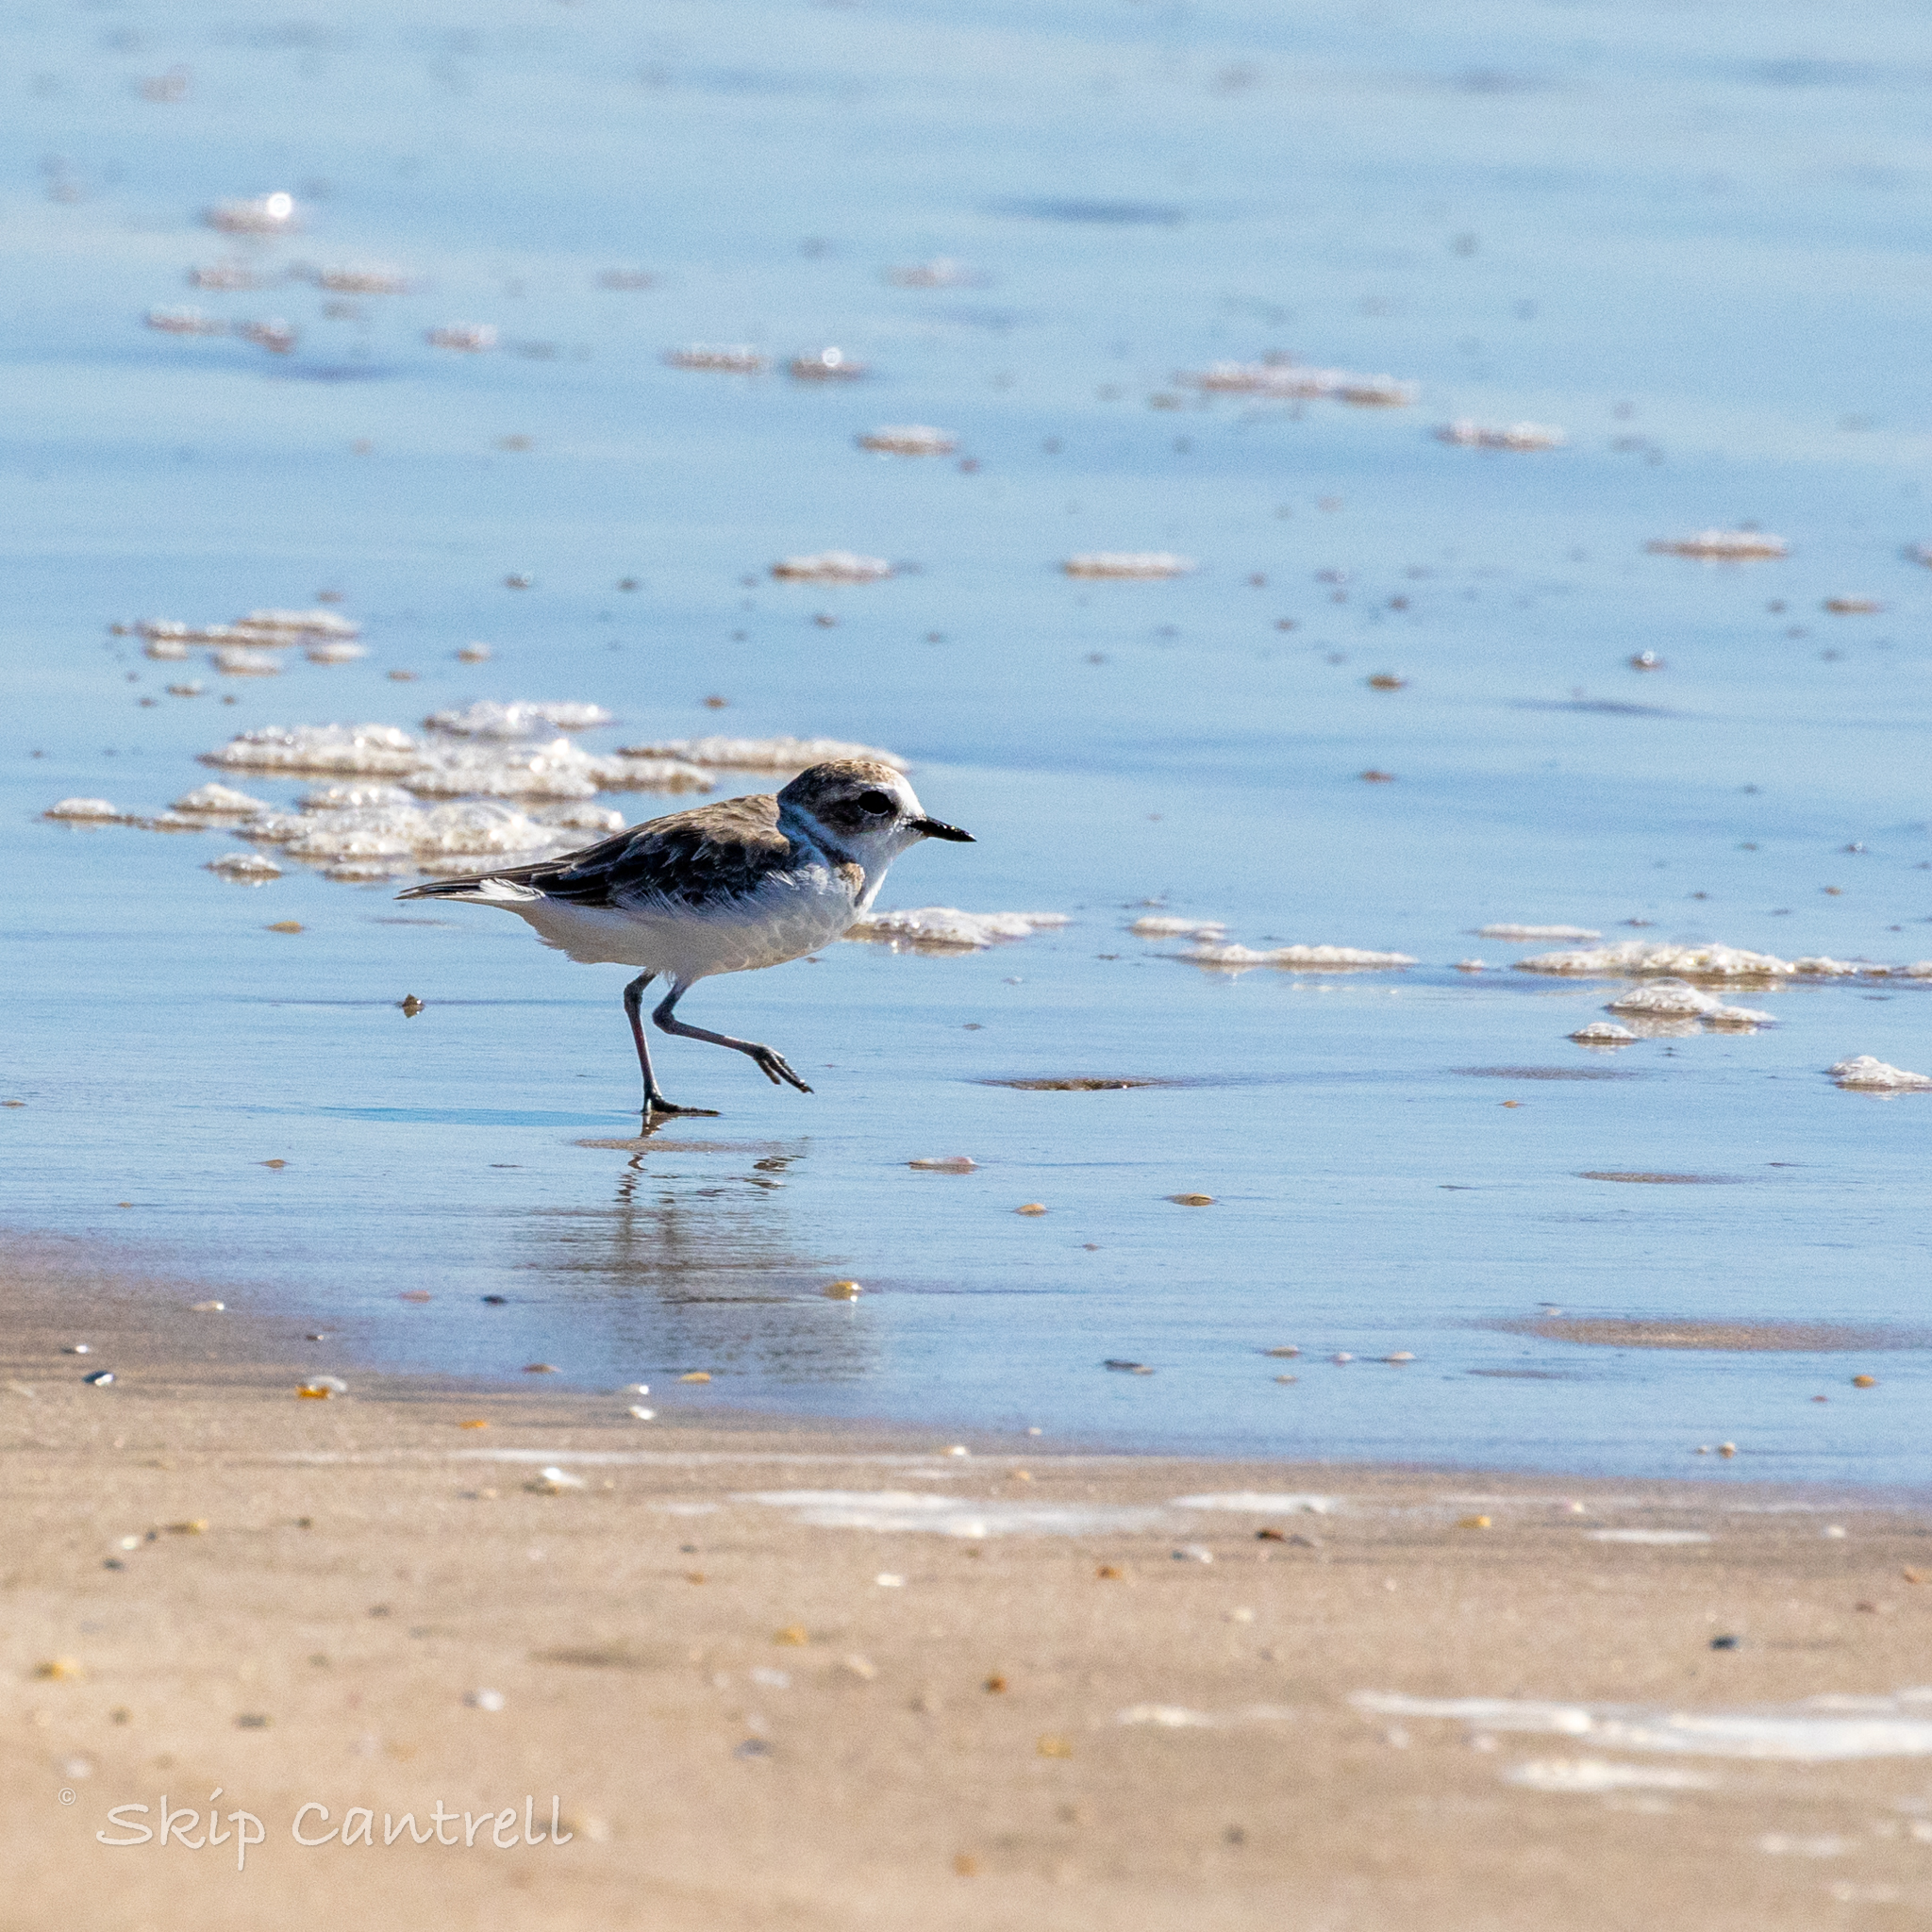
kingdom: Animalia
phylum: Chordata
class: Aves
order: Charadriiformes
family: Charadriidae
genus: Anarhynchus
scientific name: Anarhynchus
